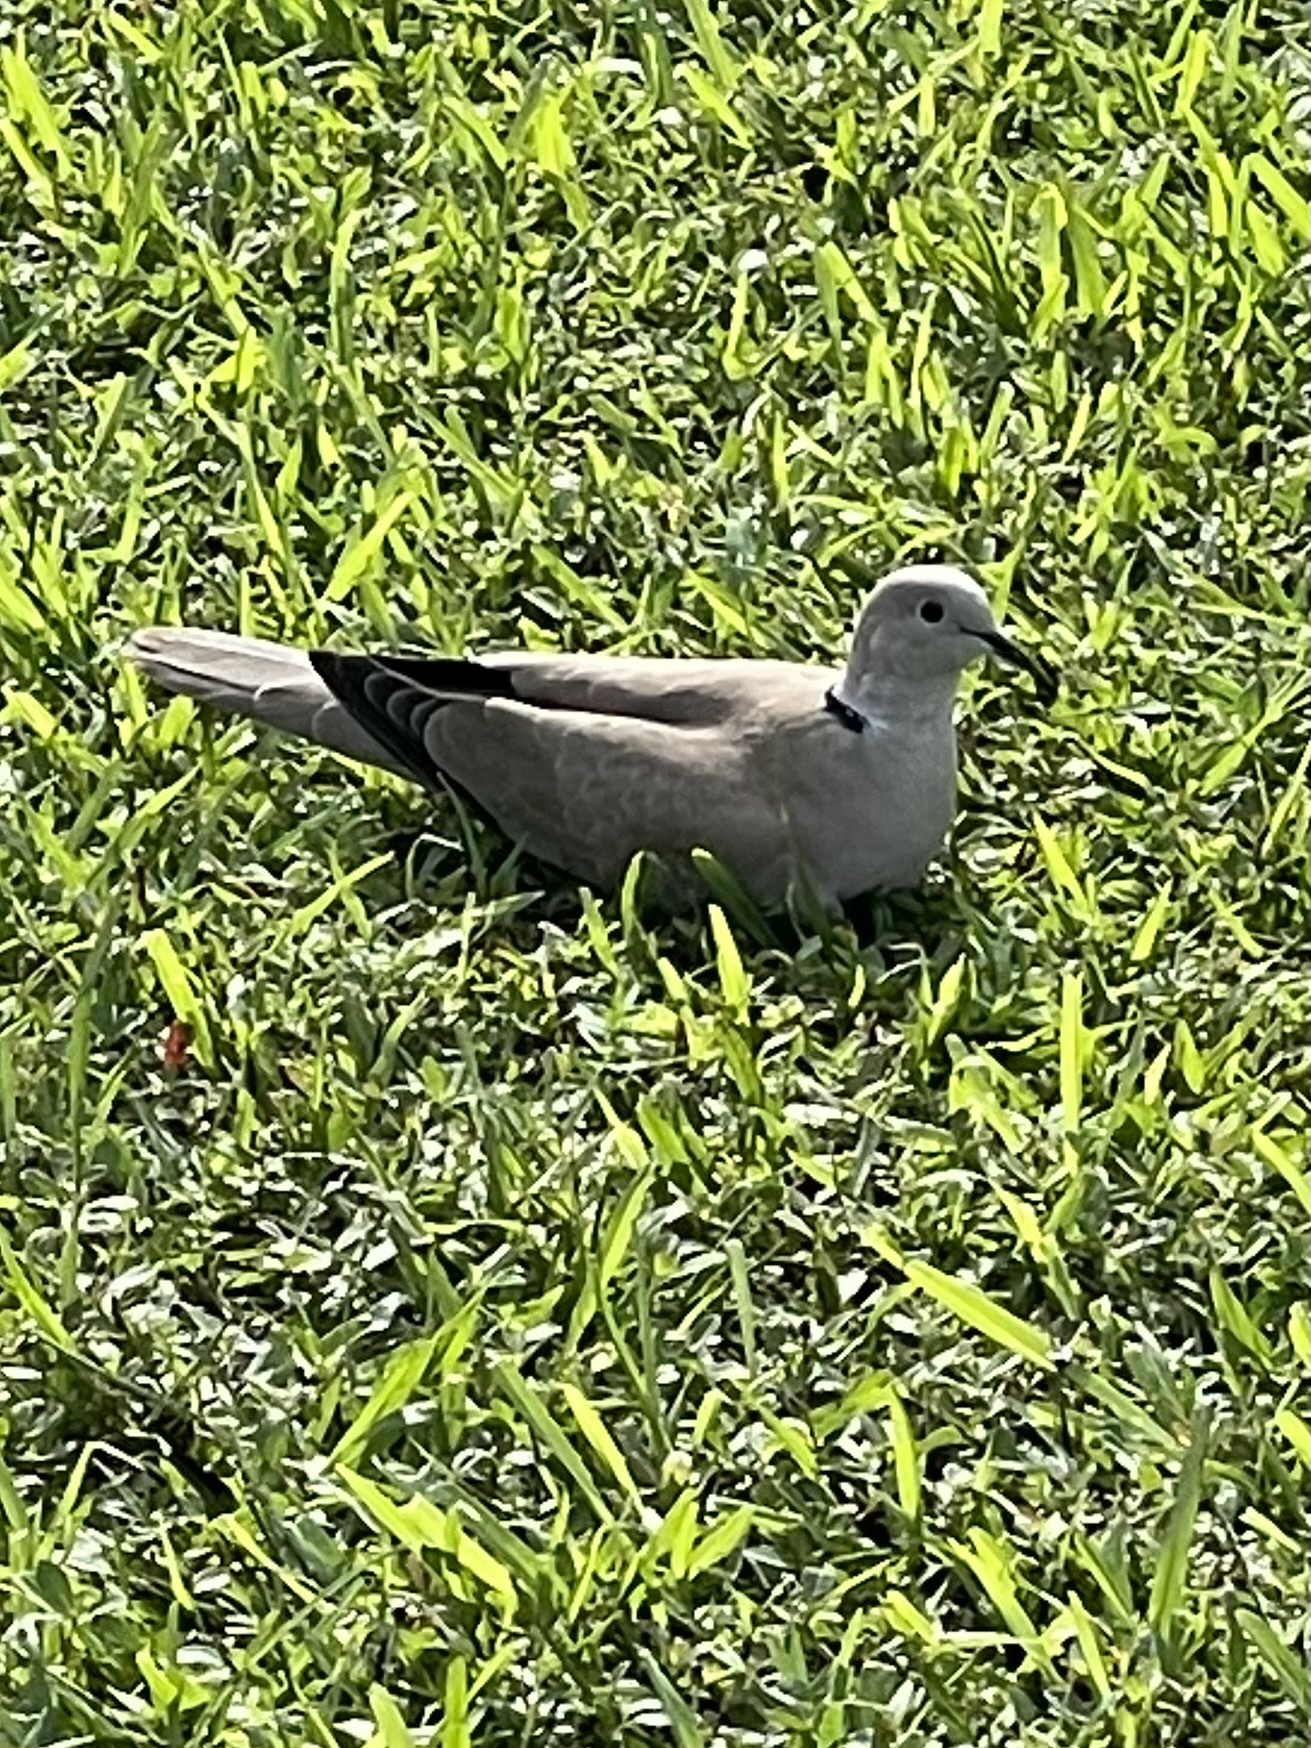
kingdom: Animalia
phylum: Chordata
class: Aves
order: Columbiformes
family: Columbidae
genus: Streptopelia
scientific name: Streptopelia decaocto
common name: Eurasian collared dove
